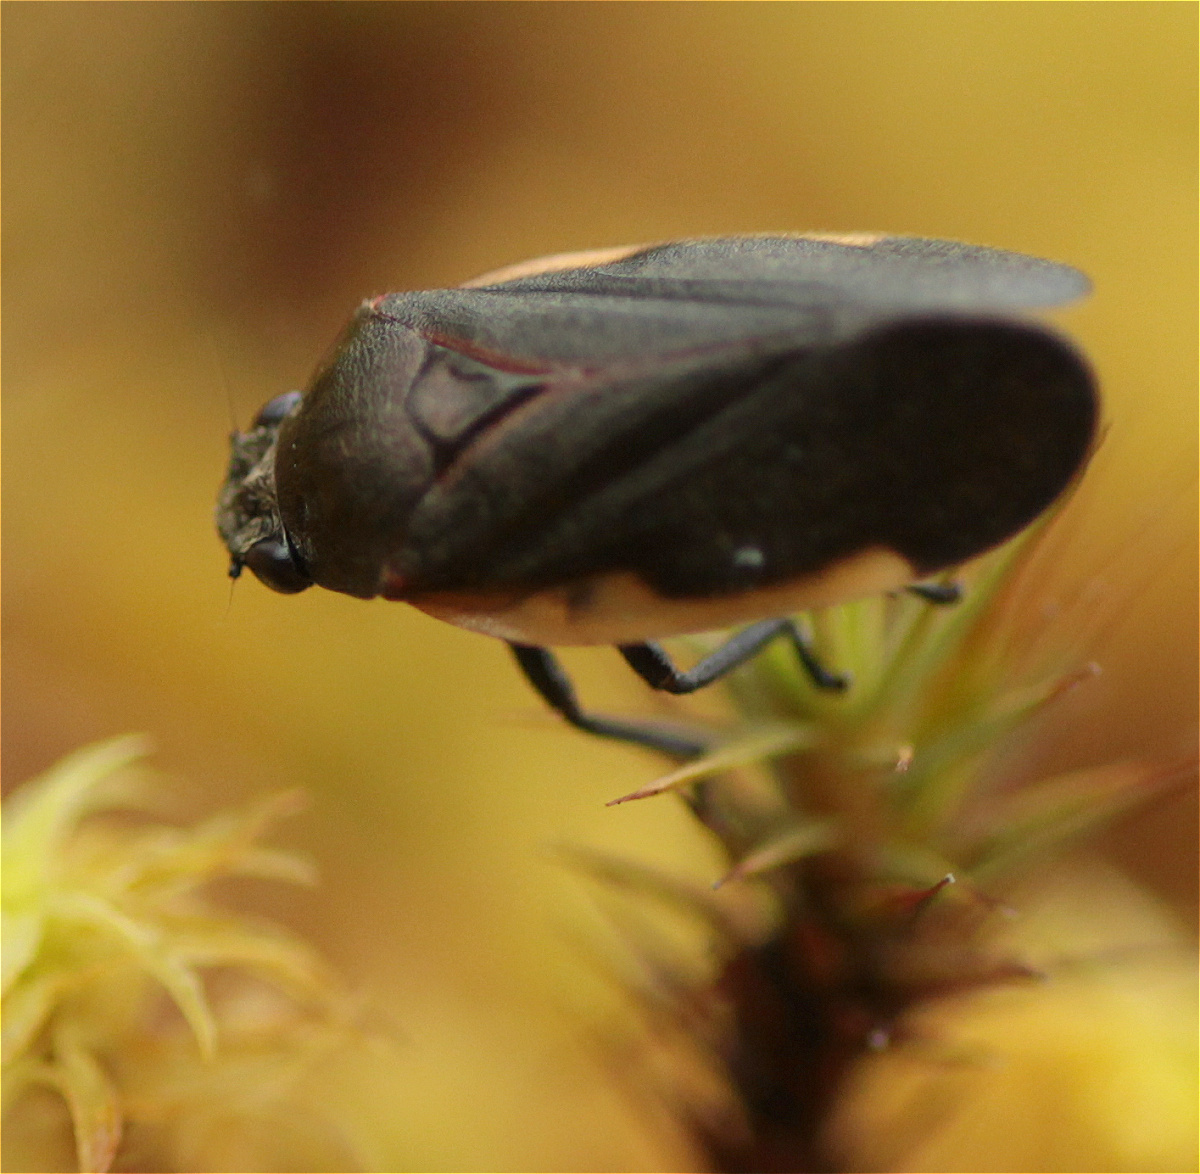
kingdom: Animalia
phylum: Arthropoda
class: Insecta
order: Hemiptera
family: Cercopidae
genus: Aeneolamia
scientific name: Aeneolamia flavilatera
